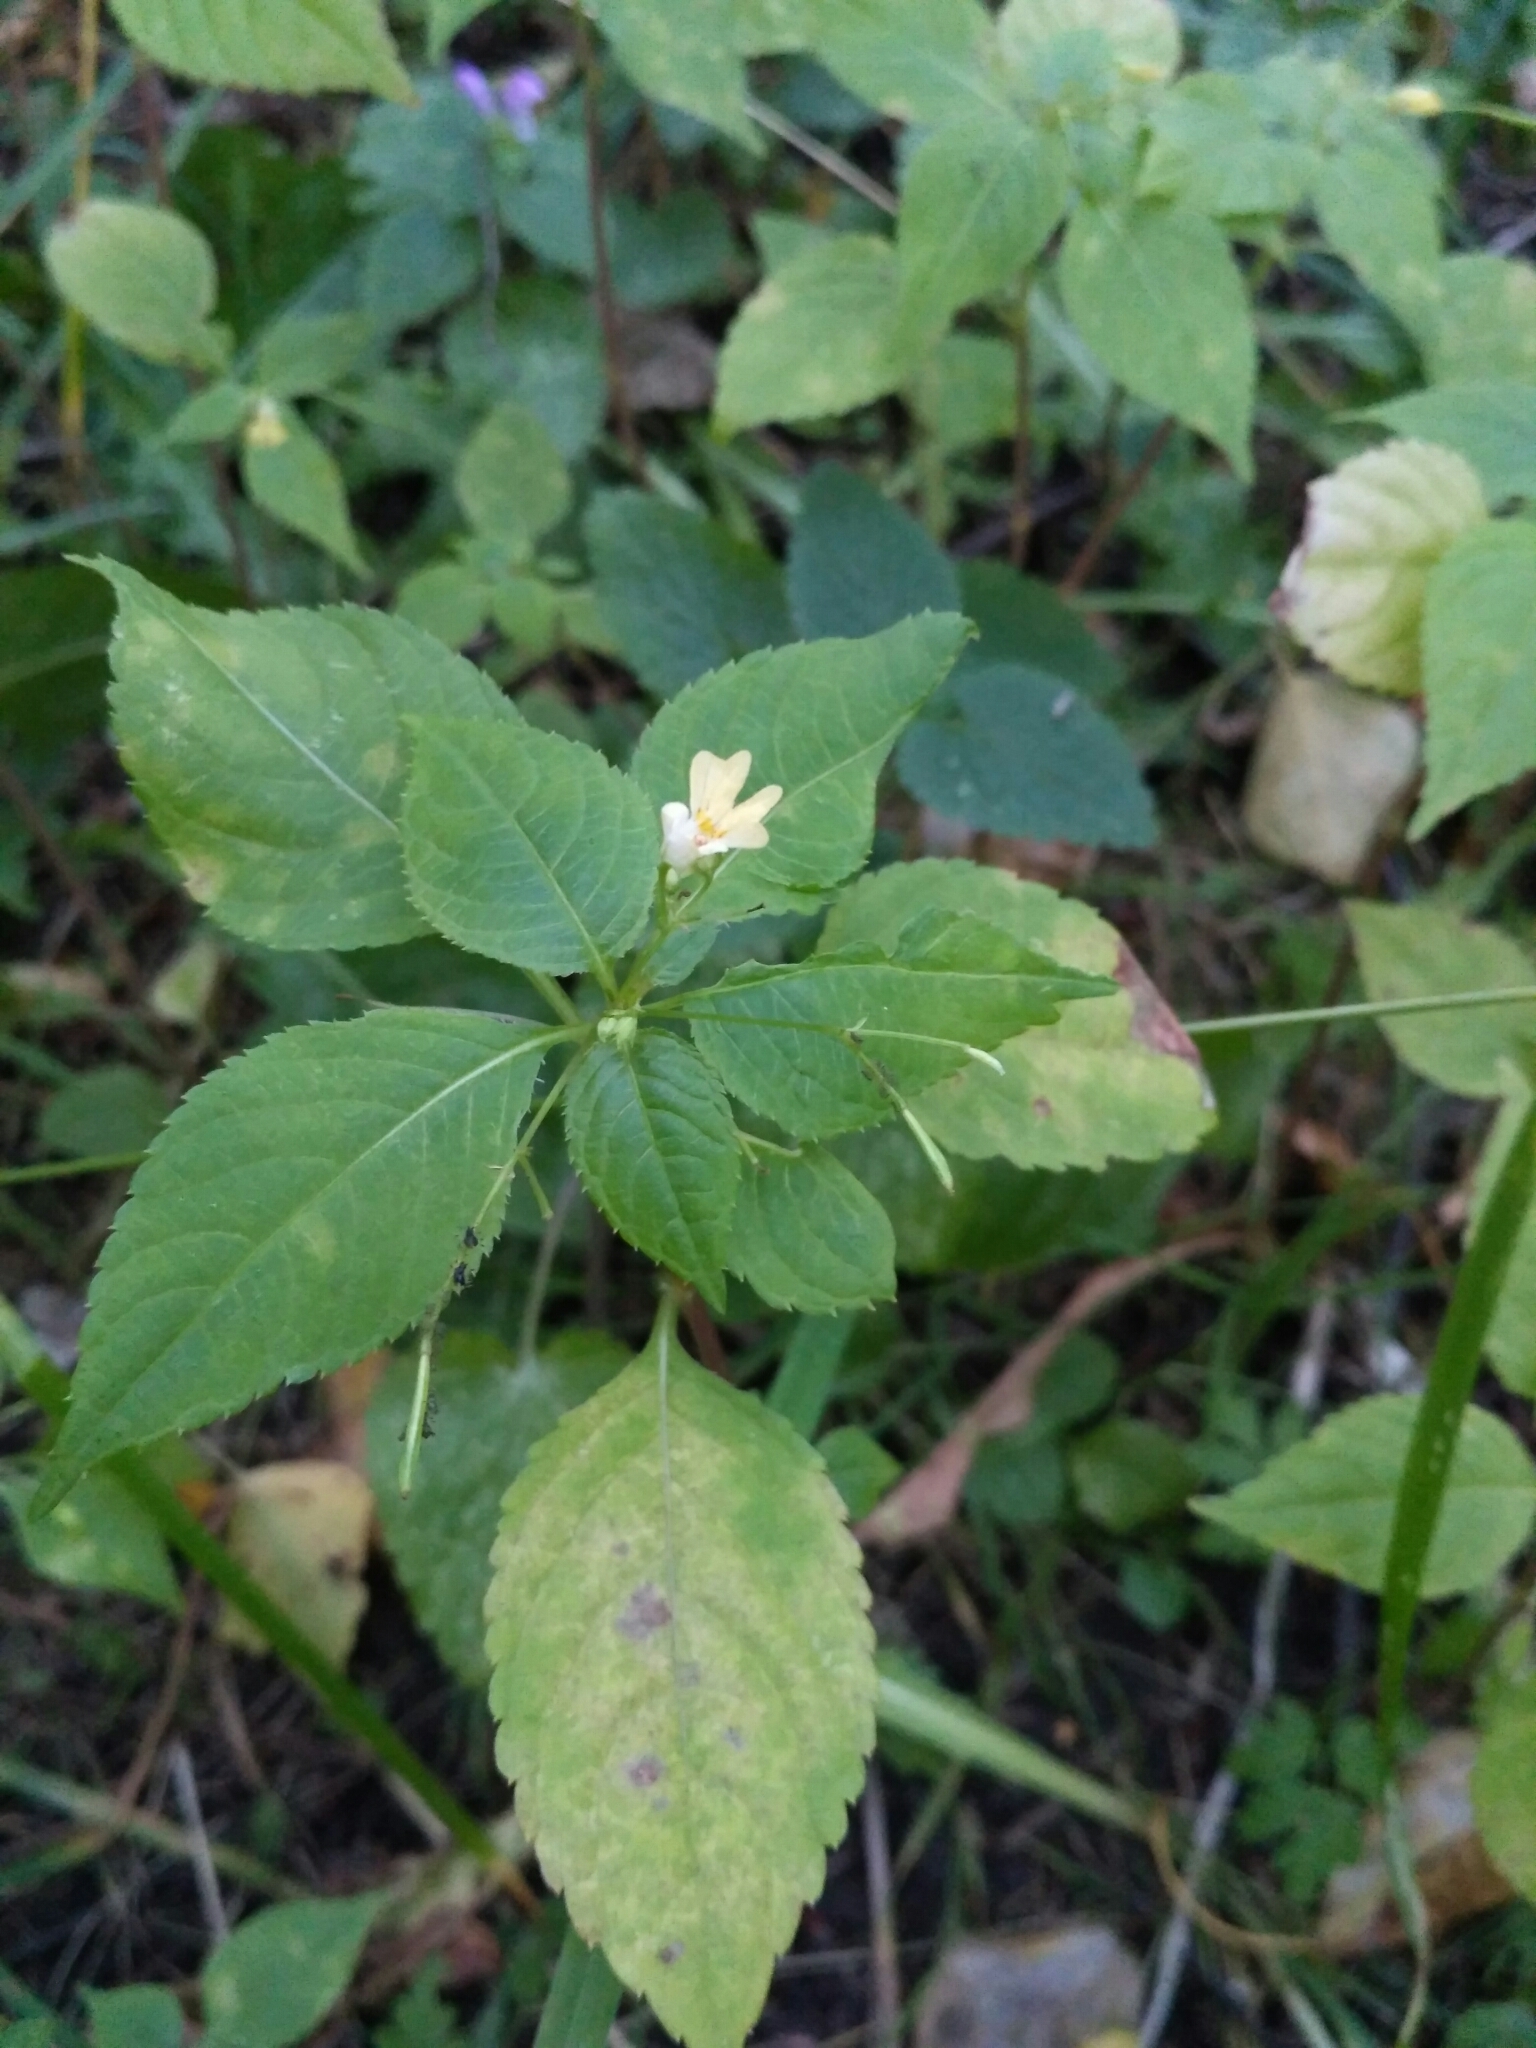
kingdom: Plantae
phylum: Tracheophyta
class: Magnoliopsida
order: Ericales
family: Balsaminaceae
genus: Impatiens
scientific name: Impatiens parviflora
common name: Small balsam
